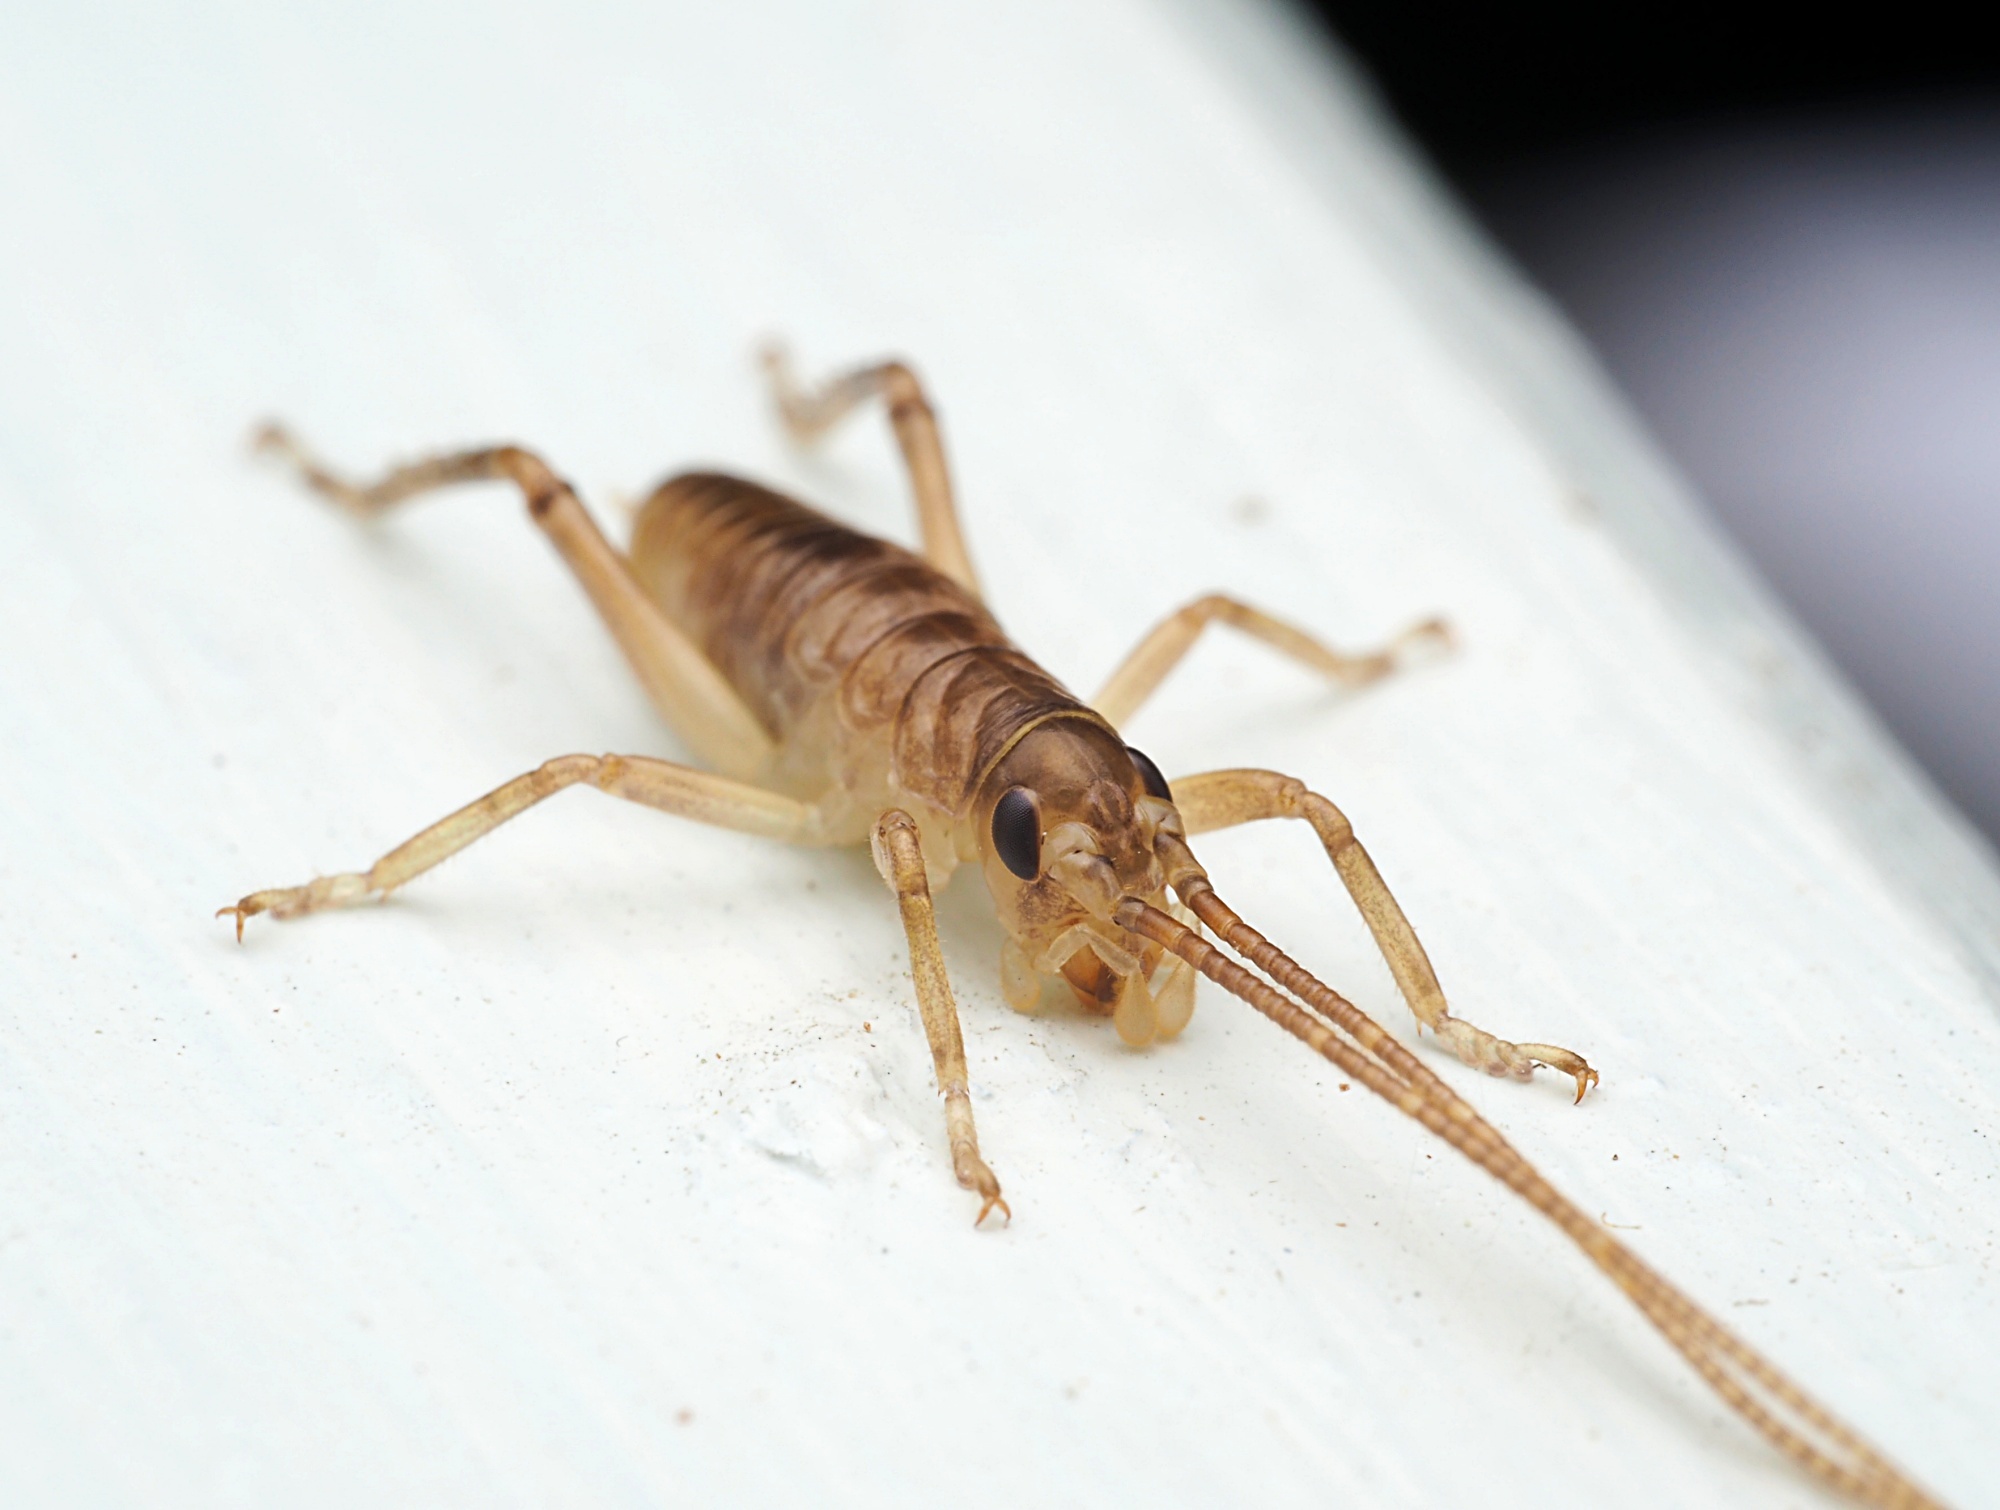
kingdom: Animalia
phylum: Arthropoda
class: Insecta
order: Orthoptera
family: Anostostomatidae
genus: Anisoura
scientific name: Anisoura nicobarica
